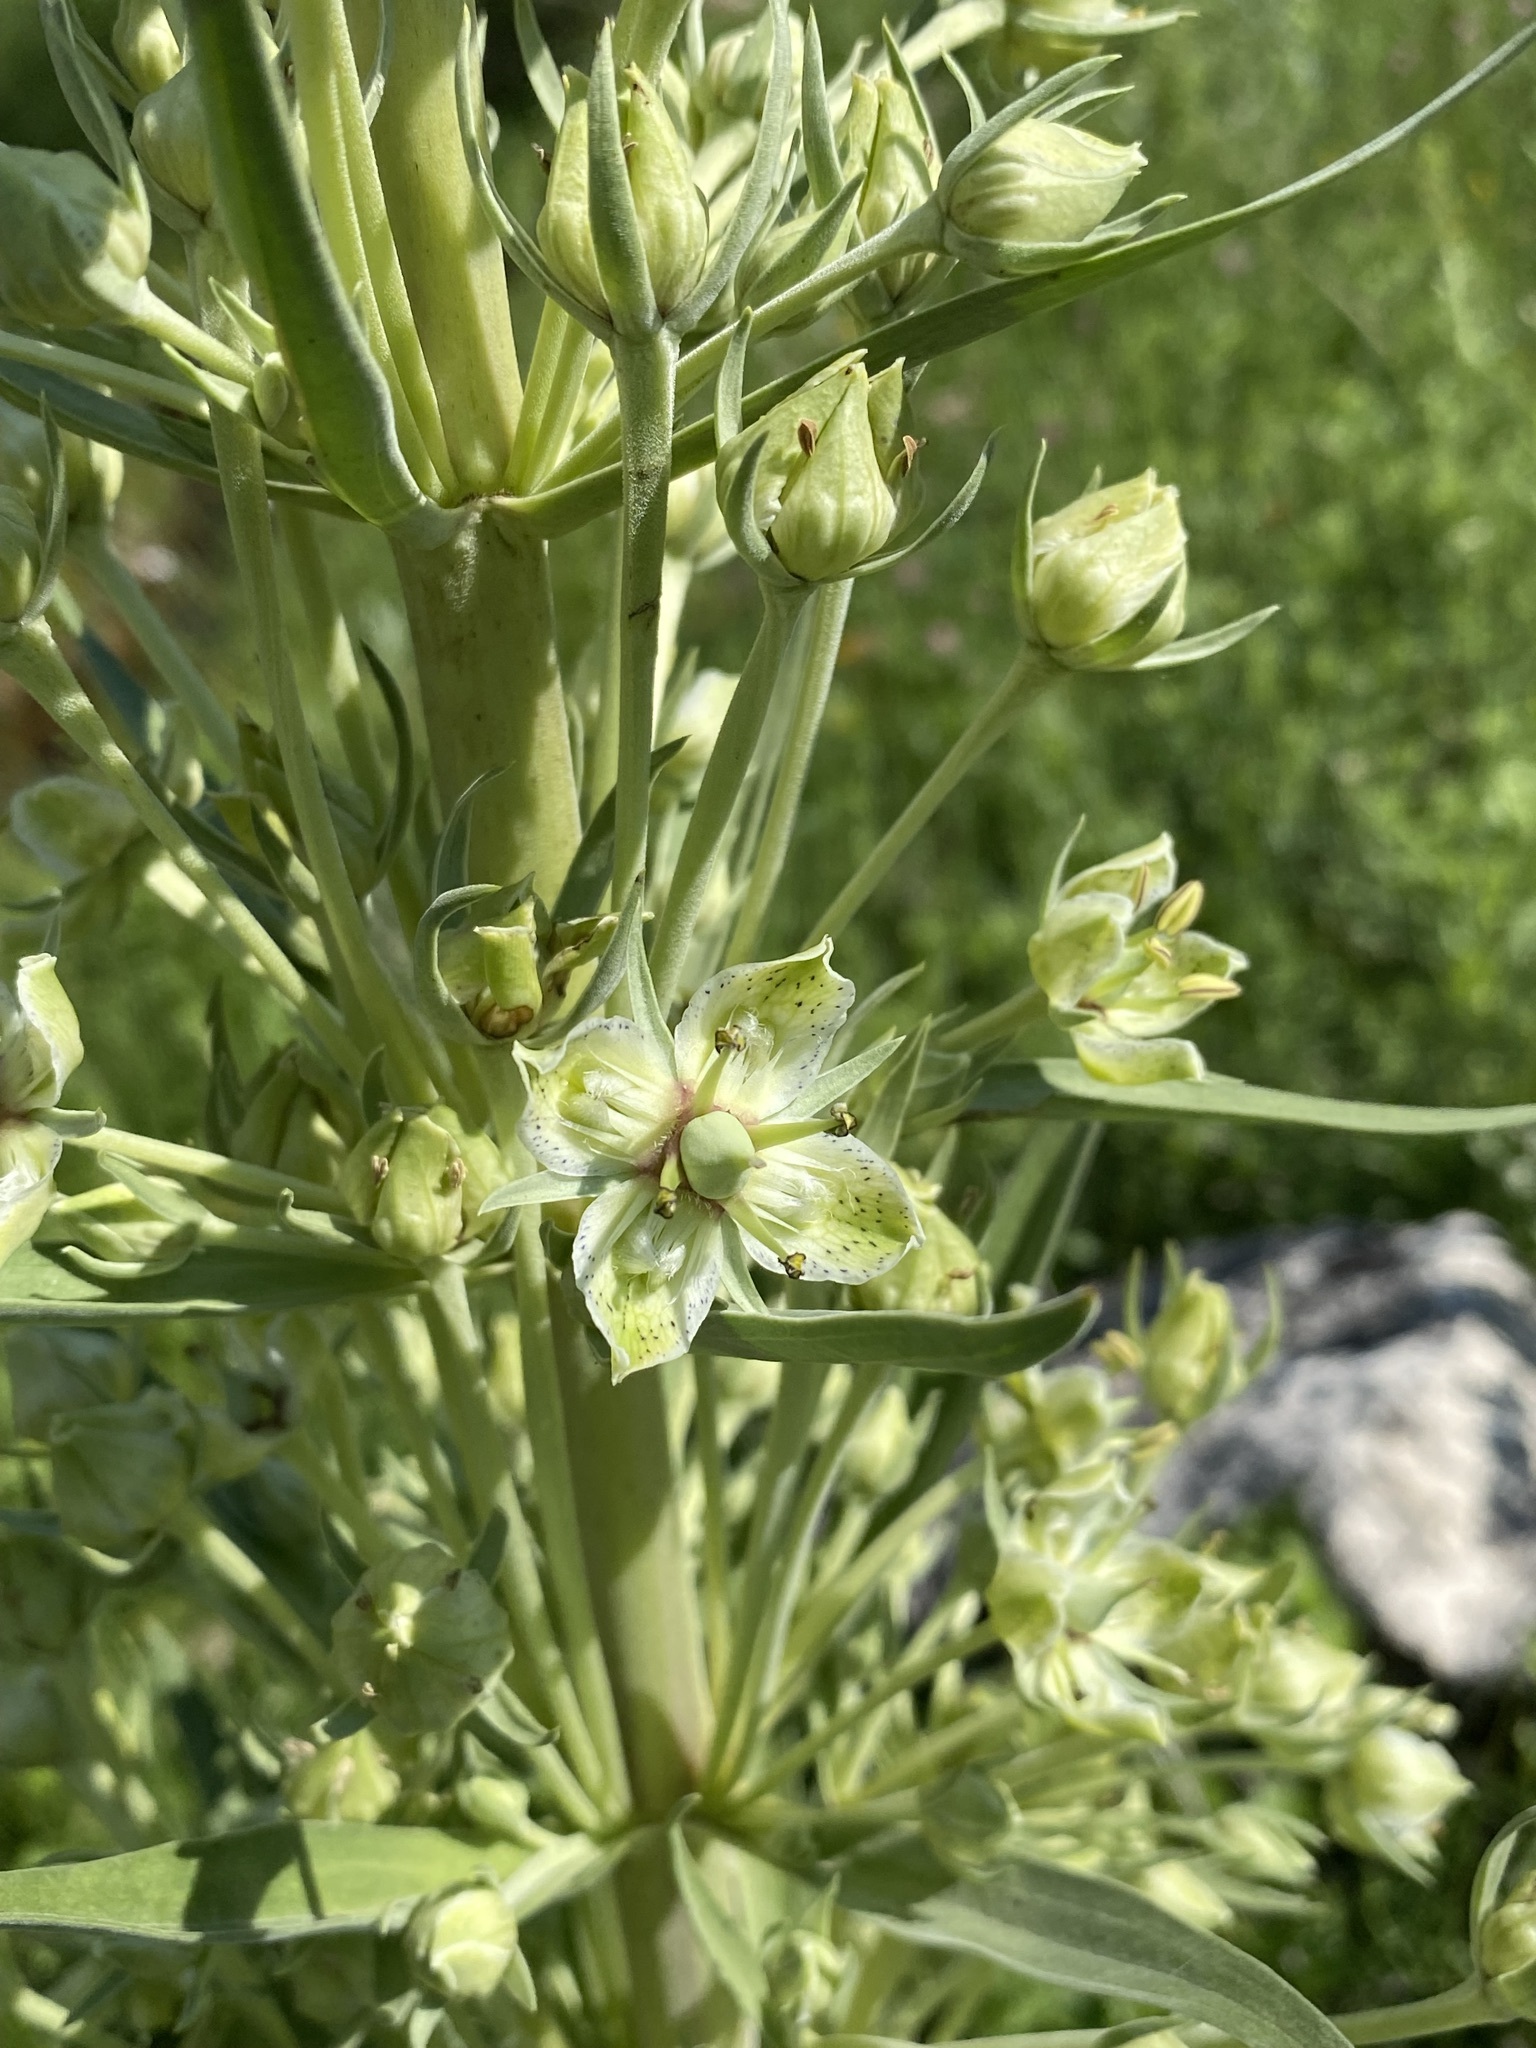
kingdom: Plantae
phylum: Tracheophyta
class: Magnoliopsida
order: Gentianales
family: Gentianaceae
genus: Frasera
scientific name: Frasera speciosa
